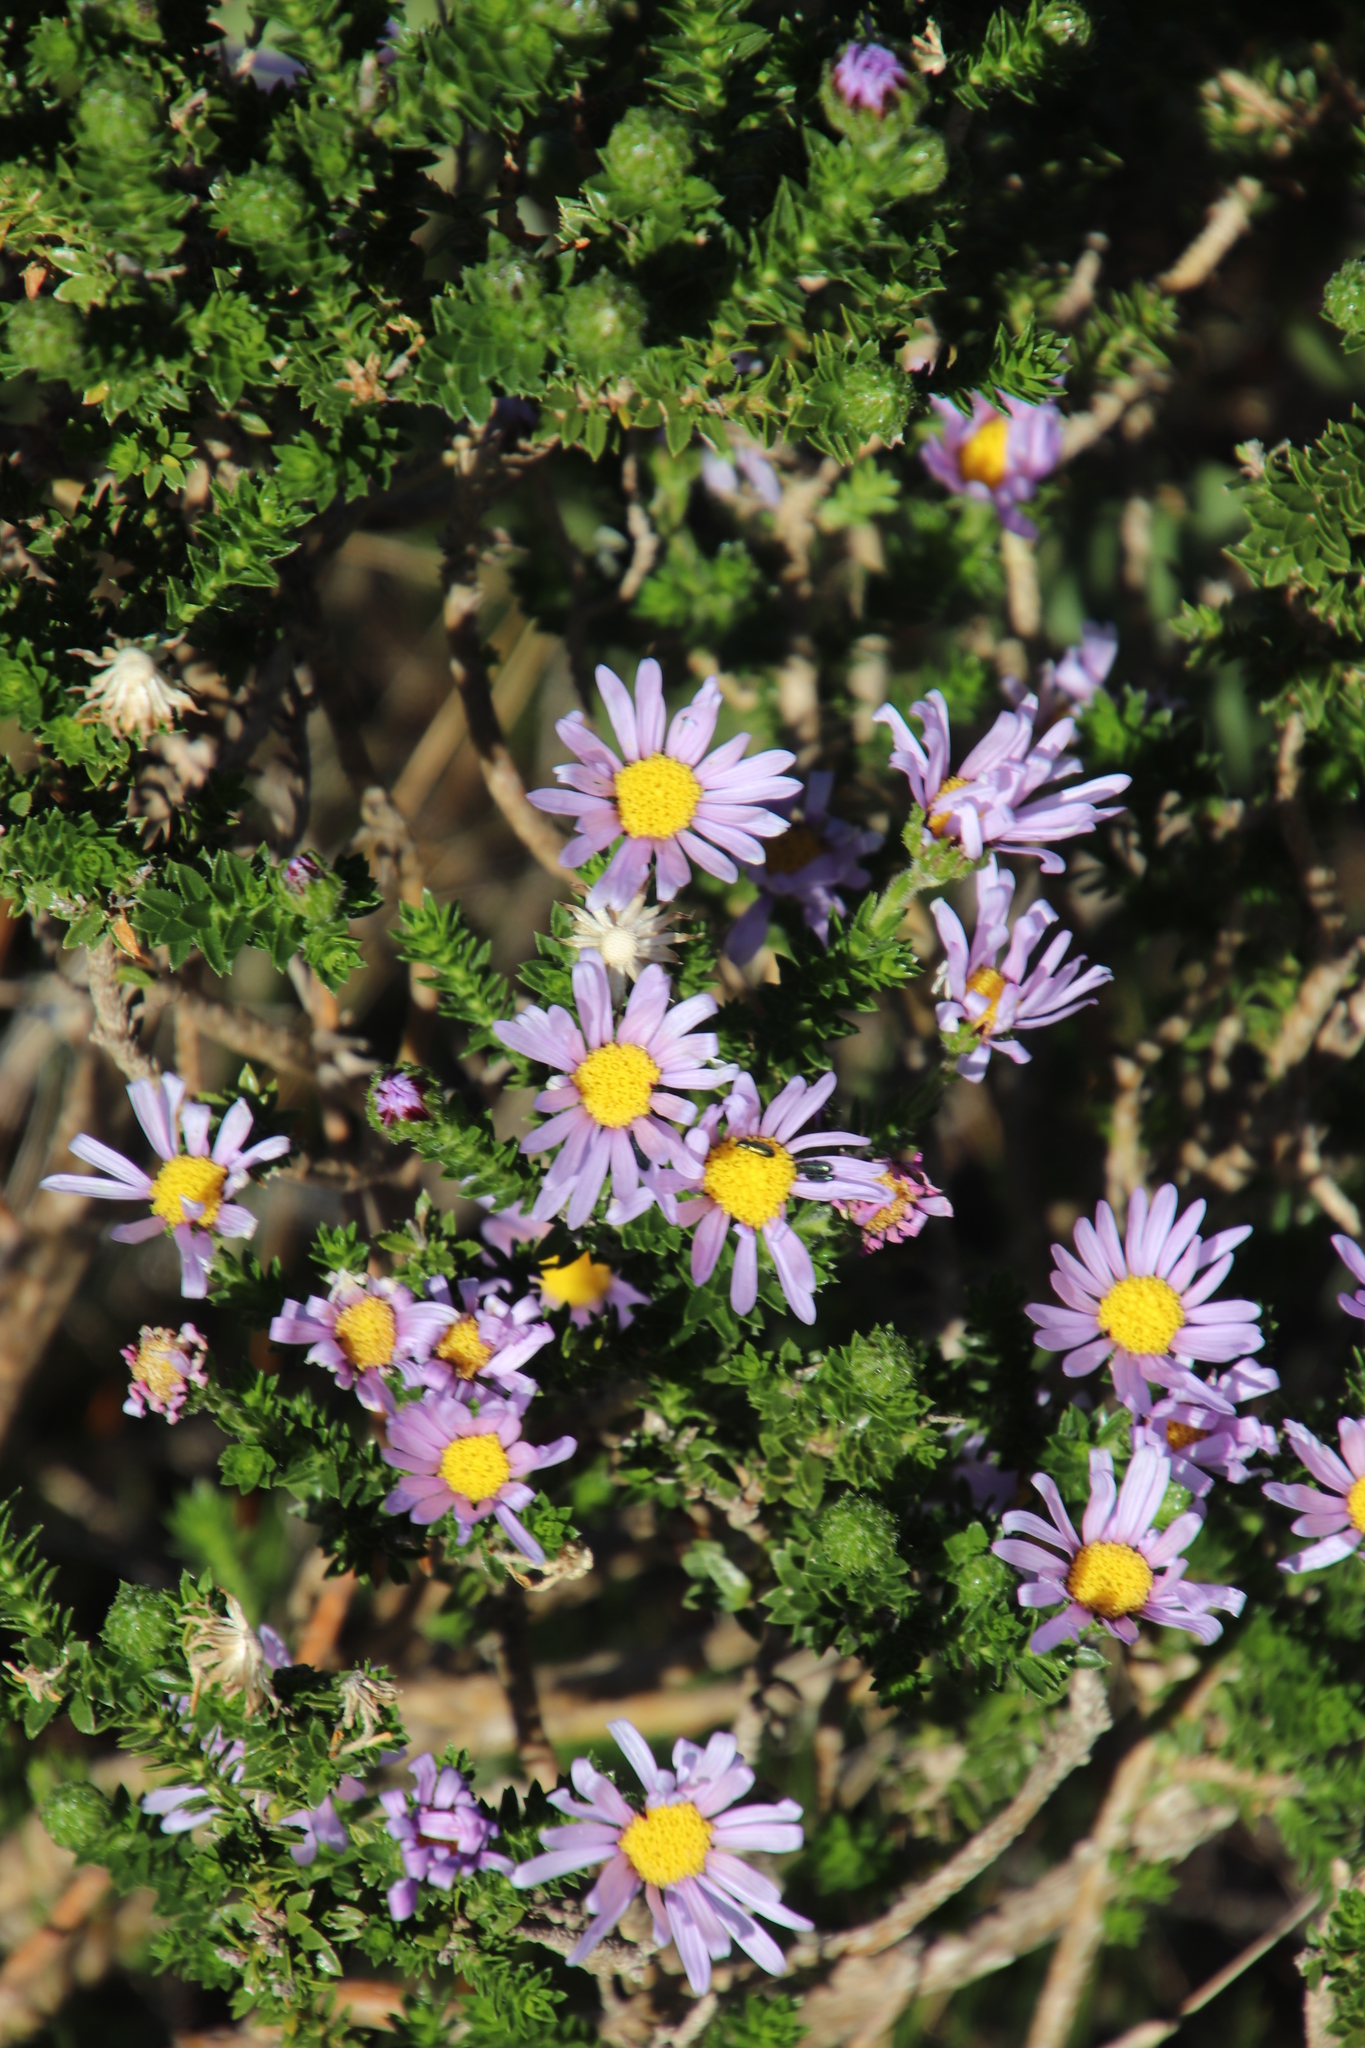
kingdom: Plantae
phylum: Tracheophyta
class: Magnoliopsida
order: Asterales
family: Asteraceae
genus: Felicia
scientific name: Felicia echinata
